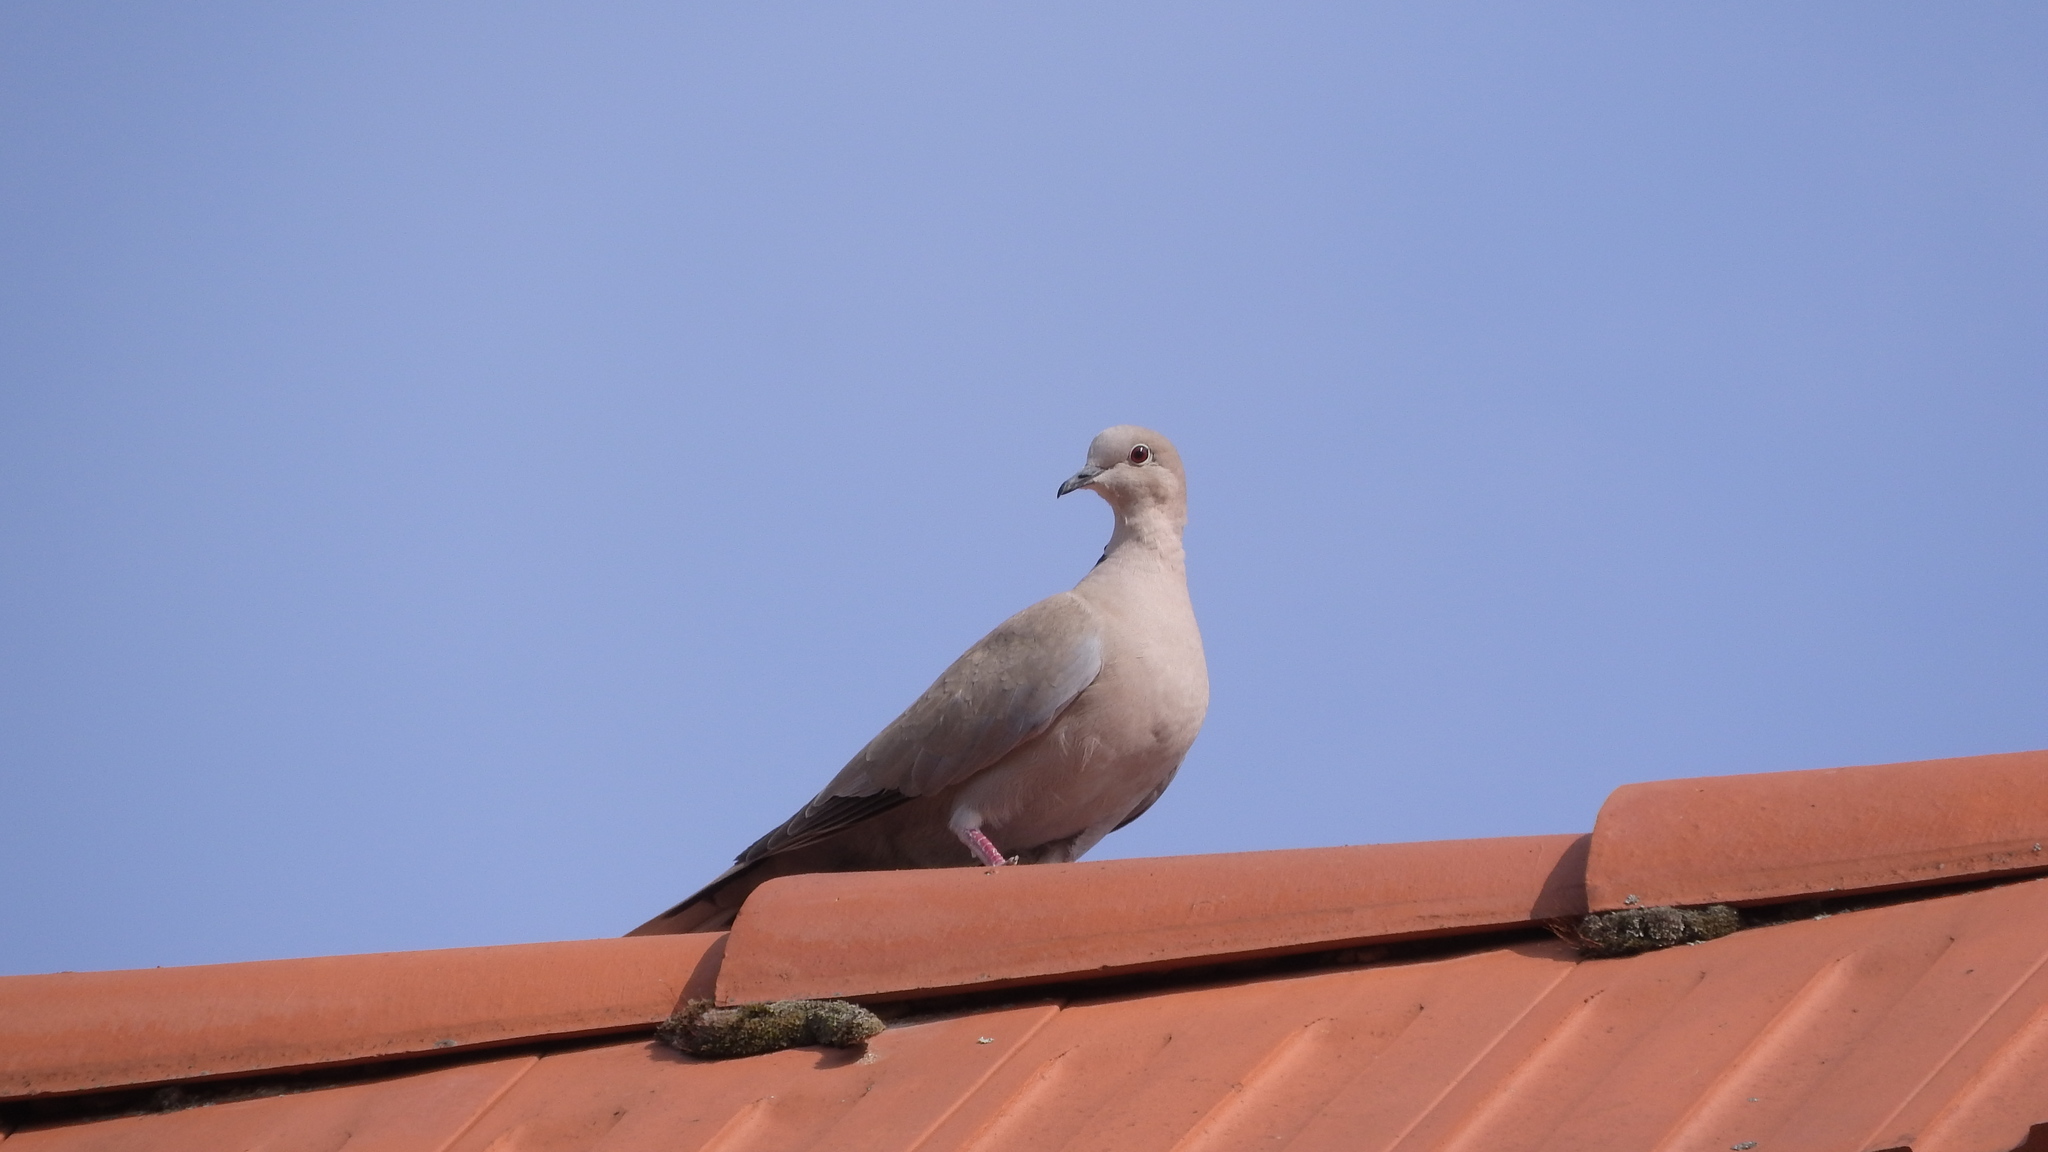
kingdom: Animalia
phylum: Chordata
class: Aves
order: Columbiformes
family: Columbidae
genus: Streptopelia
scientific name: Streptopelia decaocto
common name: Eurasian collared dove
